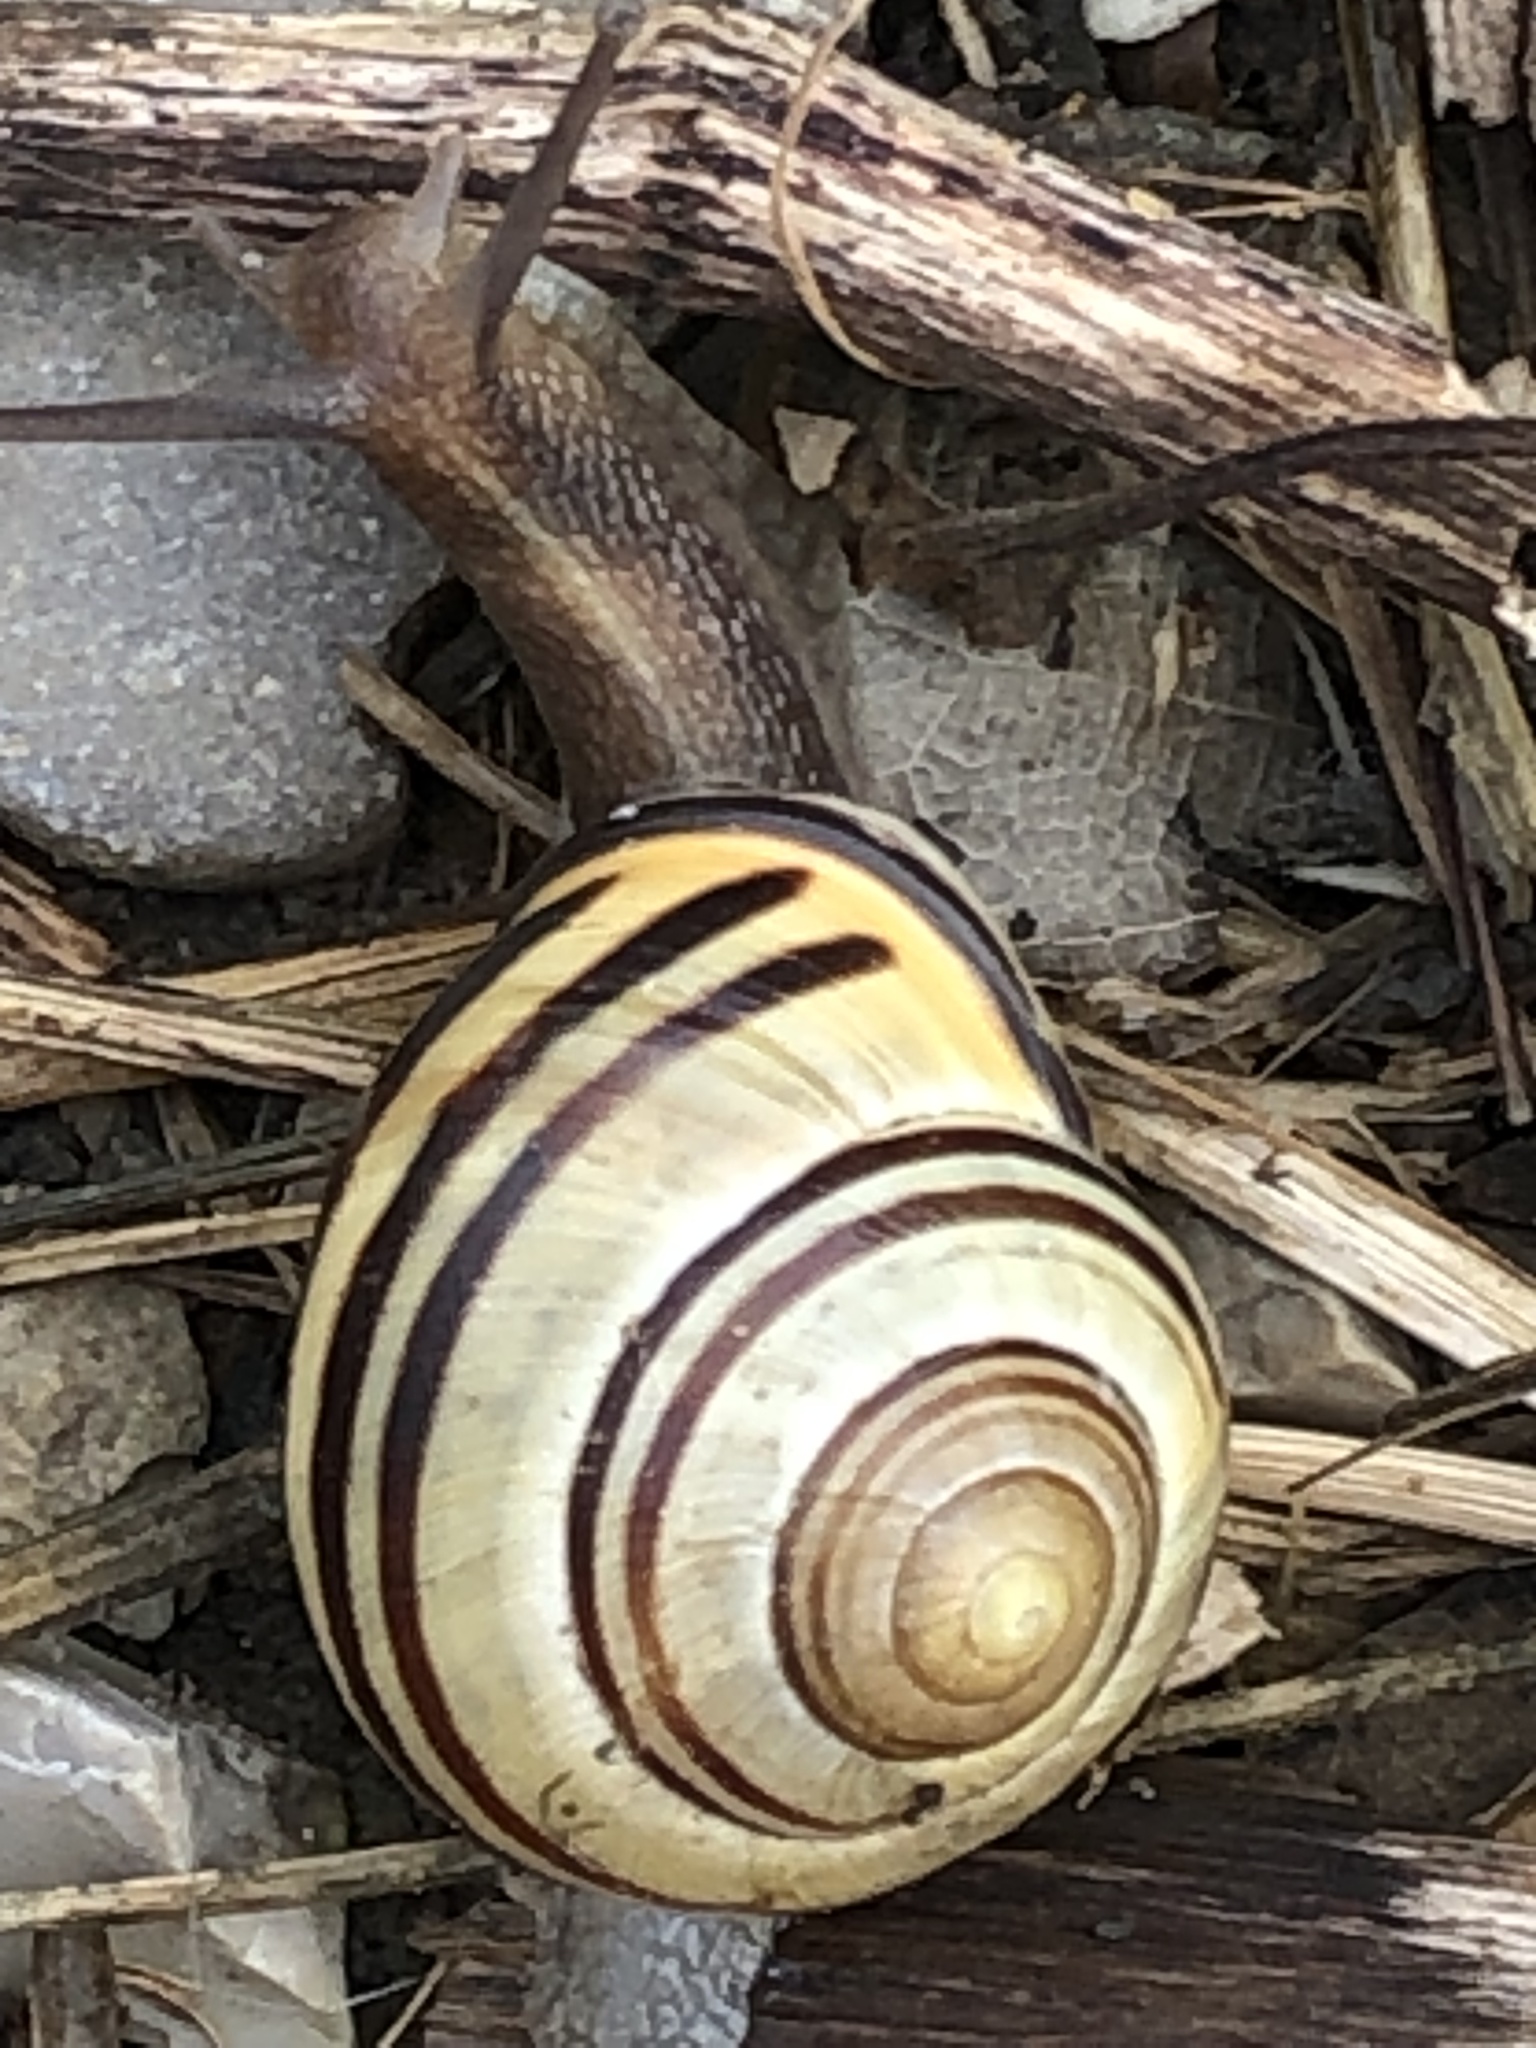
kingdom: Animalia
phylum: Mollusca
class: Gastropoda
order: Stylommatophora
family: Helicidae
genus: Cepaea
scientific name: Cepaea nemoralis
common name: Grovesnail
